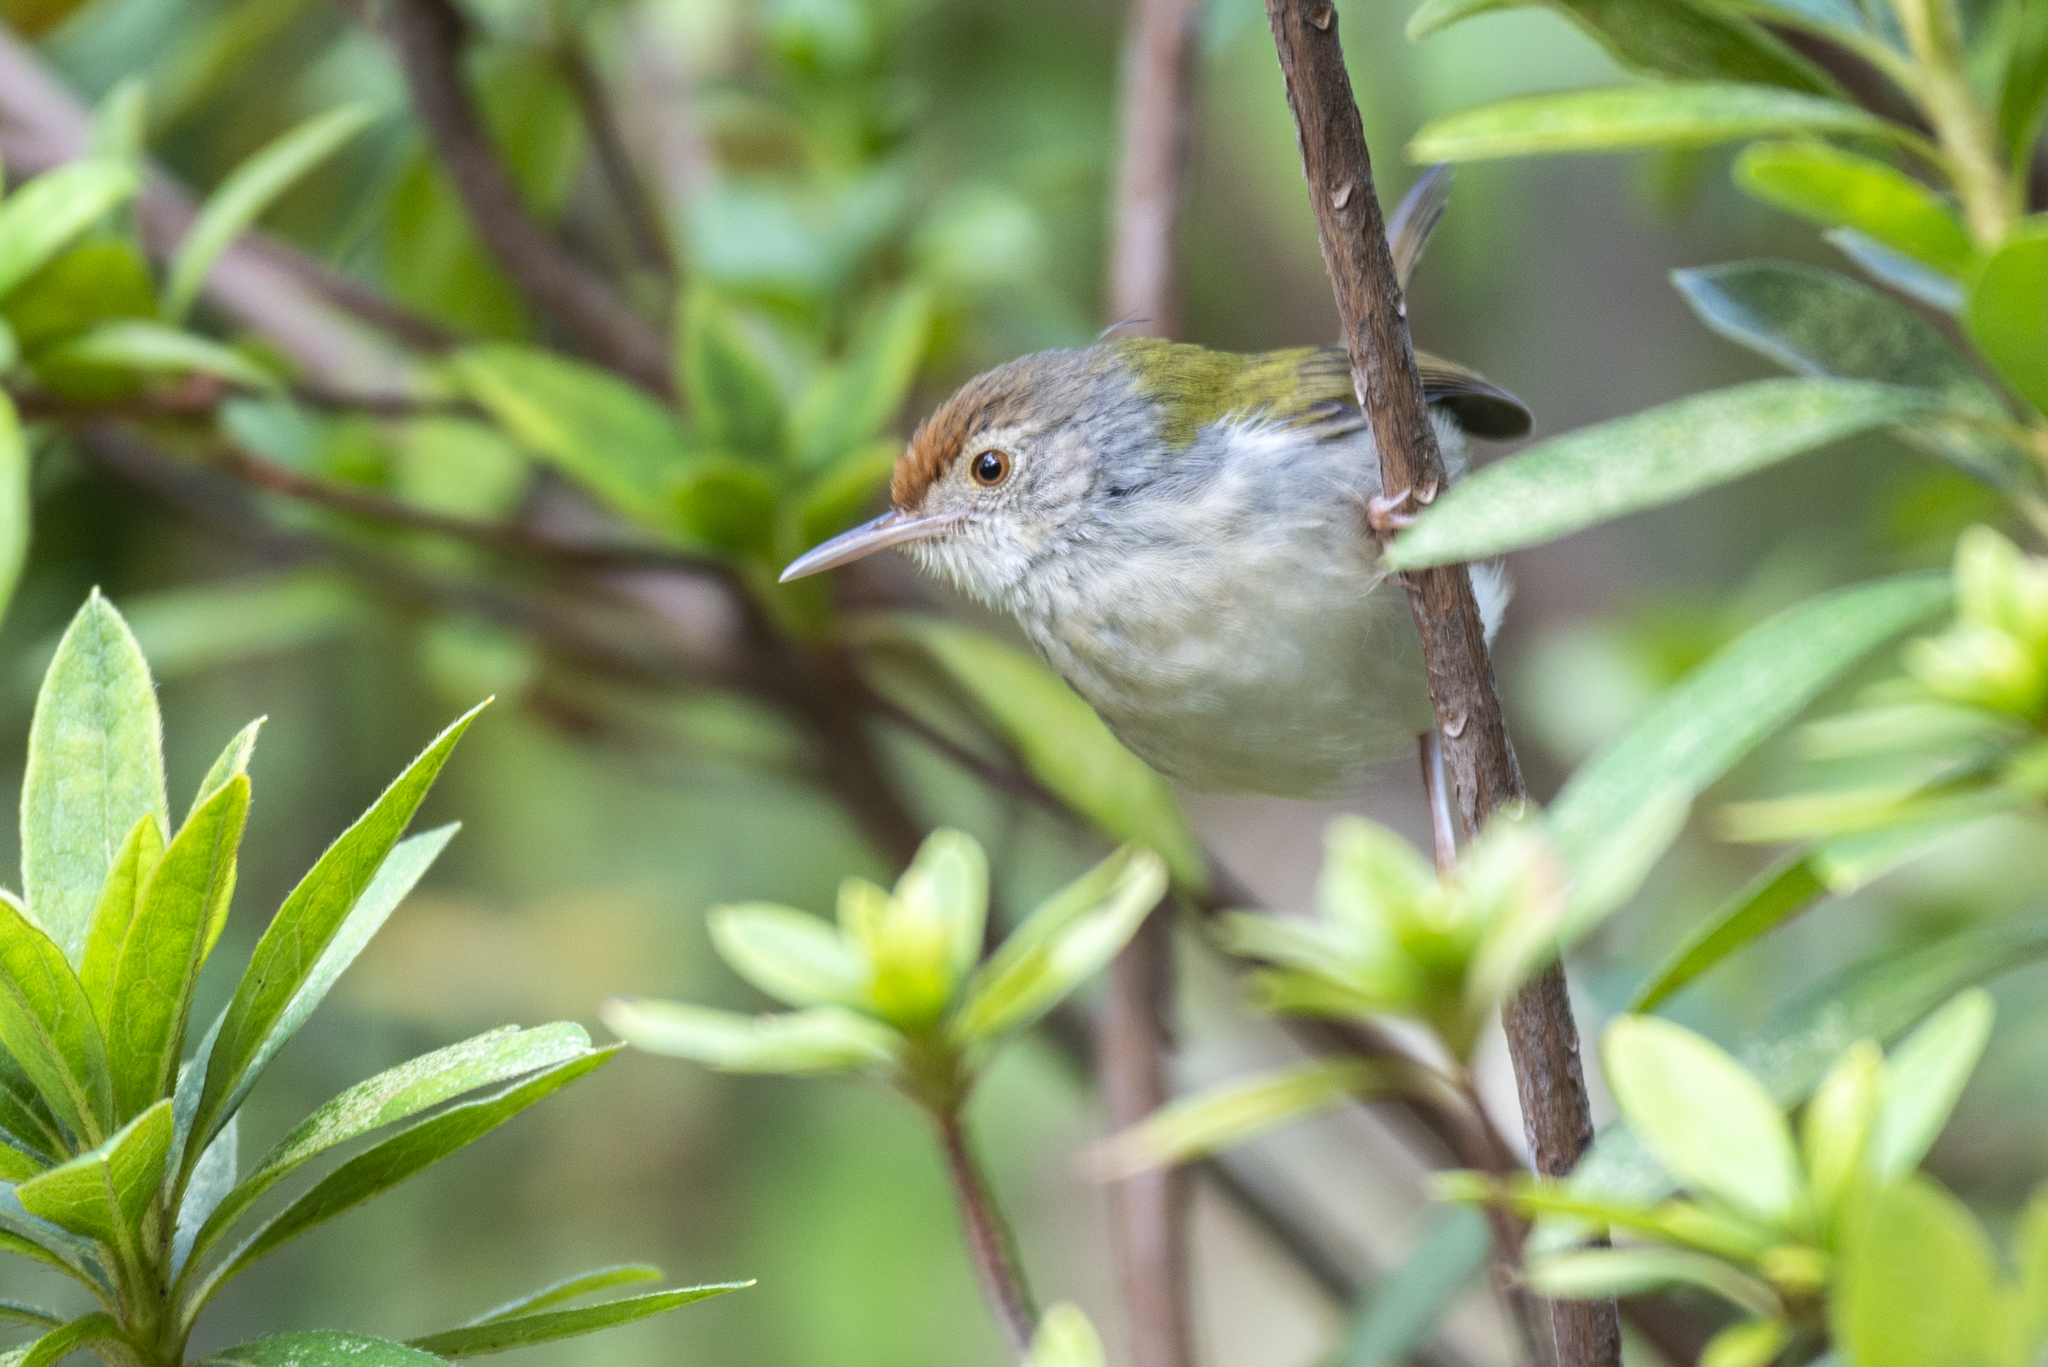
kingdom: Animalia
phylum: Chordata
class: Aves
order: Passeriformes
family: Cisticolidae
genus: Orthotomus
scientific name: Orthotomus sutorius
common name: Common tailorbird
